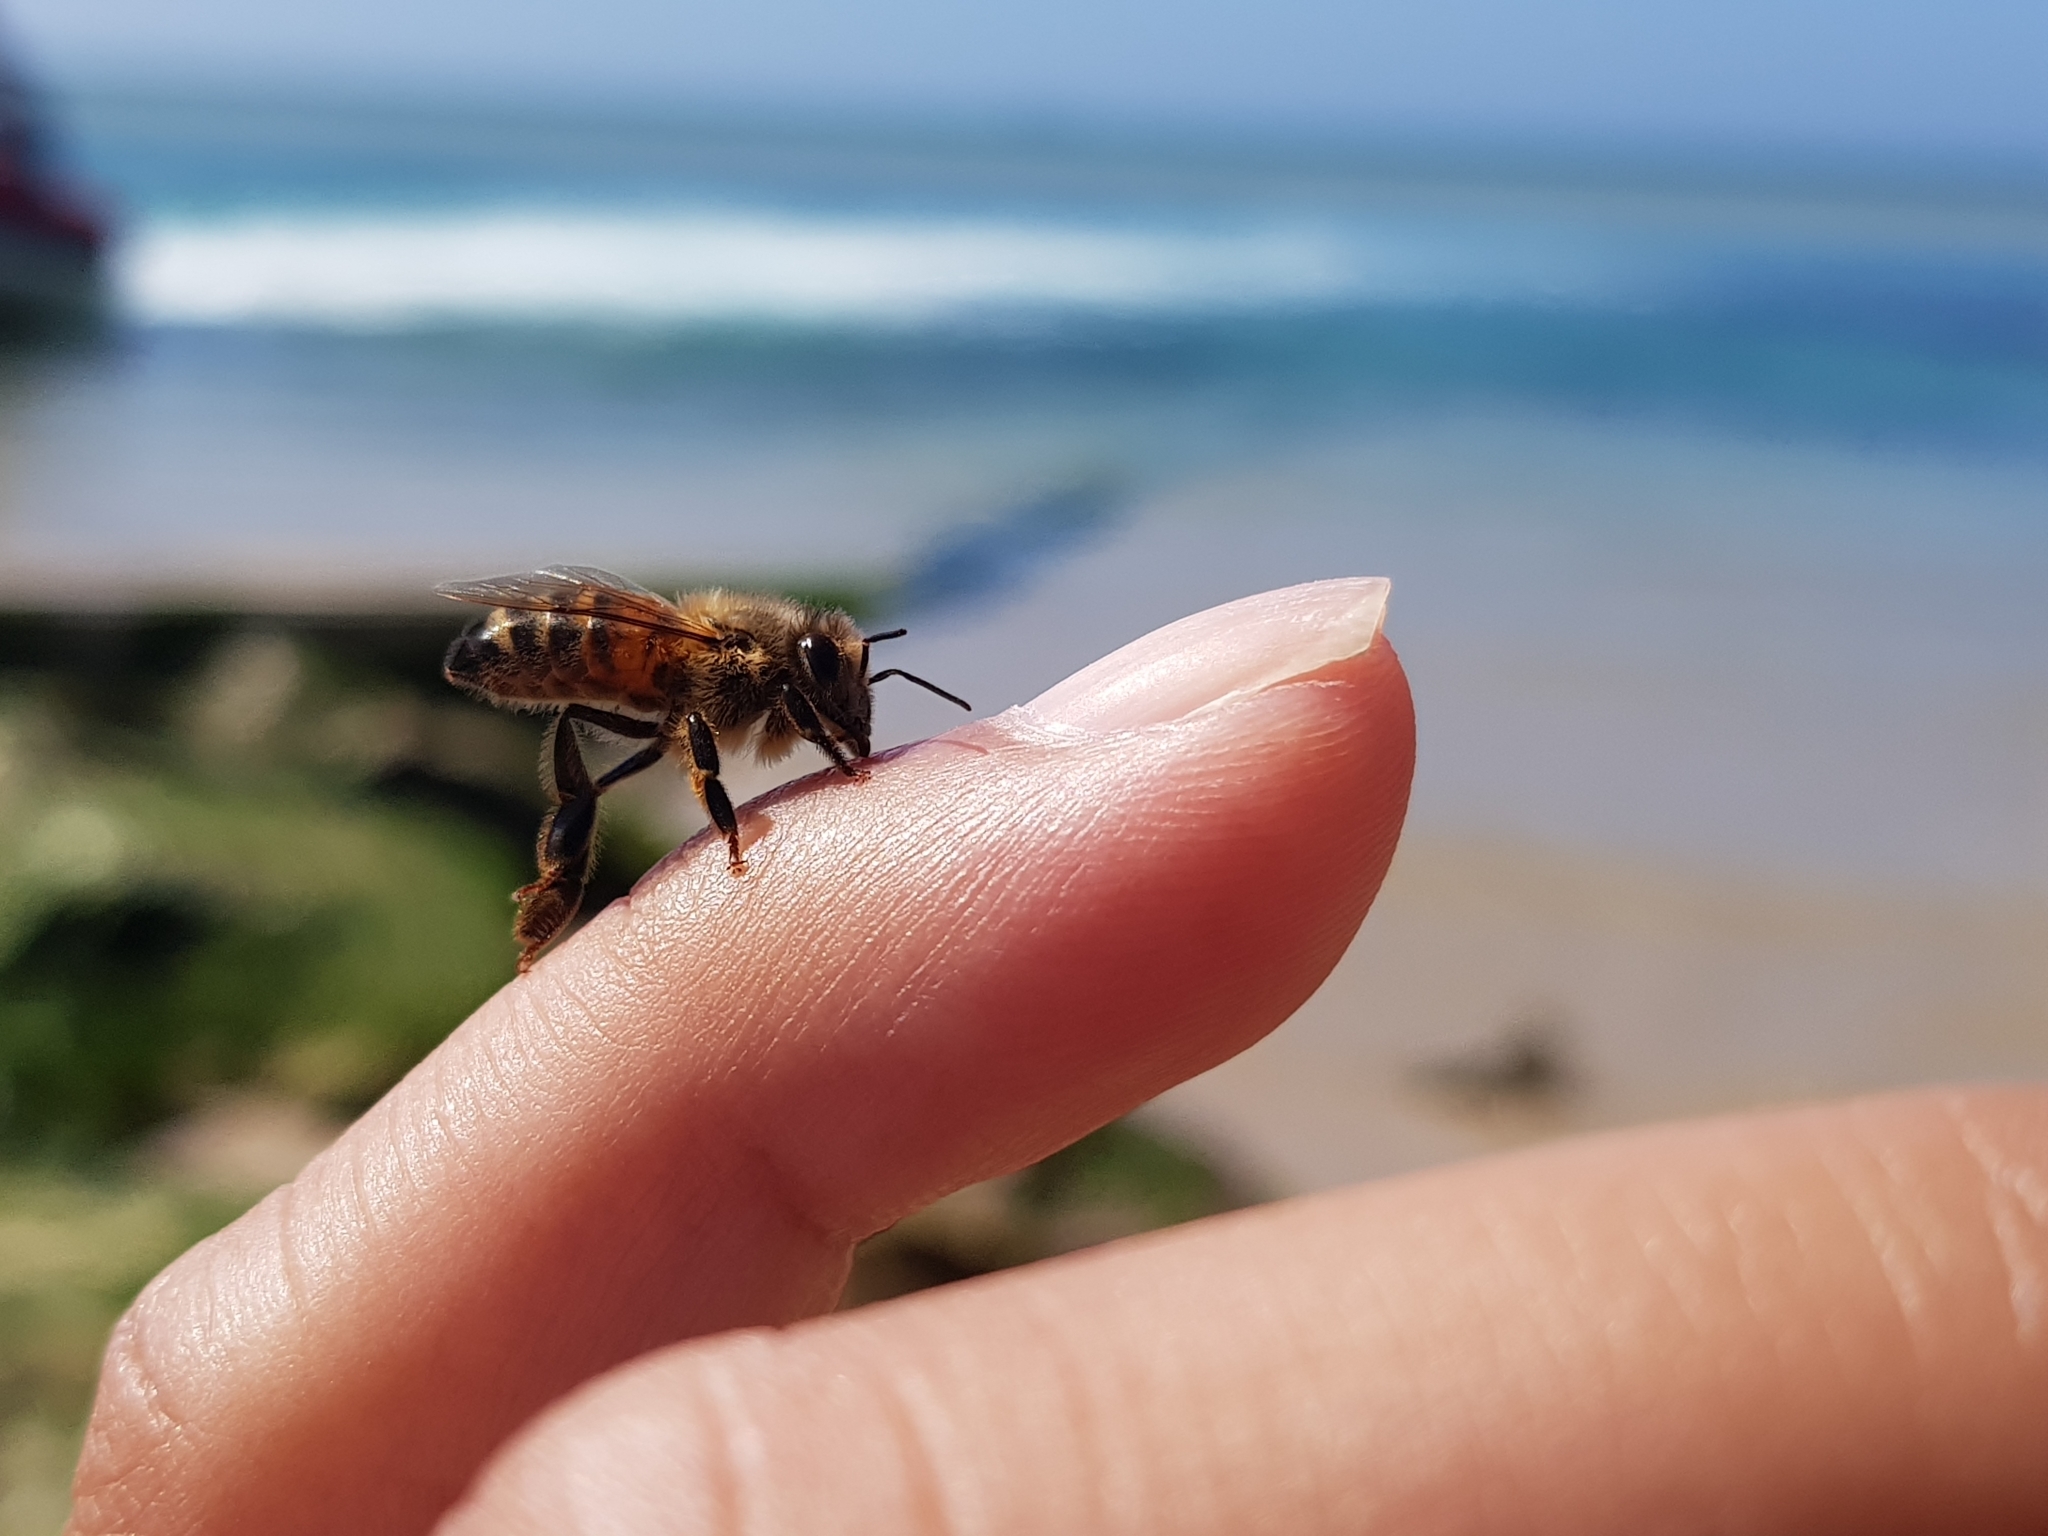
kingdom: Animalia
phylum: Arthropoda
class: Insecta
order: Hymenoptera
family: Apidae
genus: Apis
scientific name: Apis mellifera
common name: Honey bee
